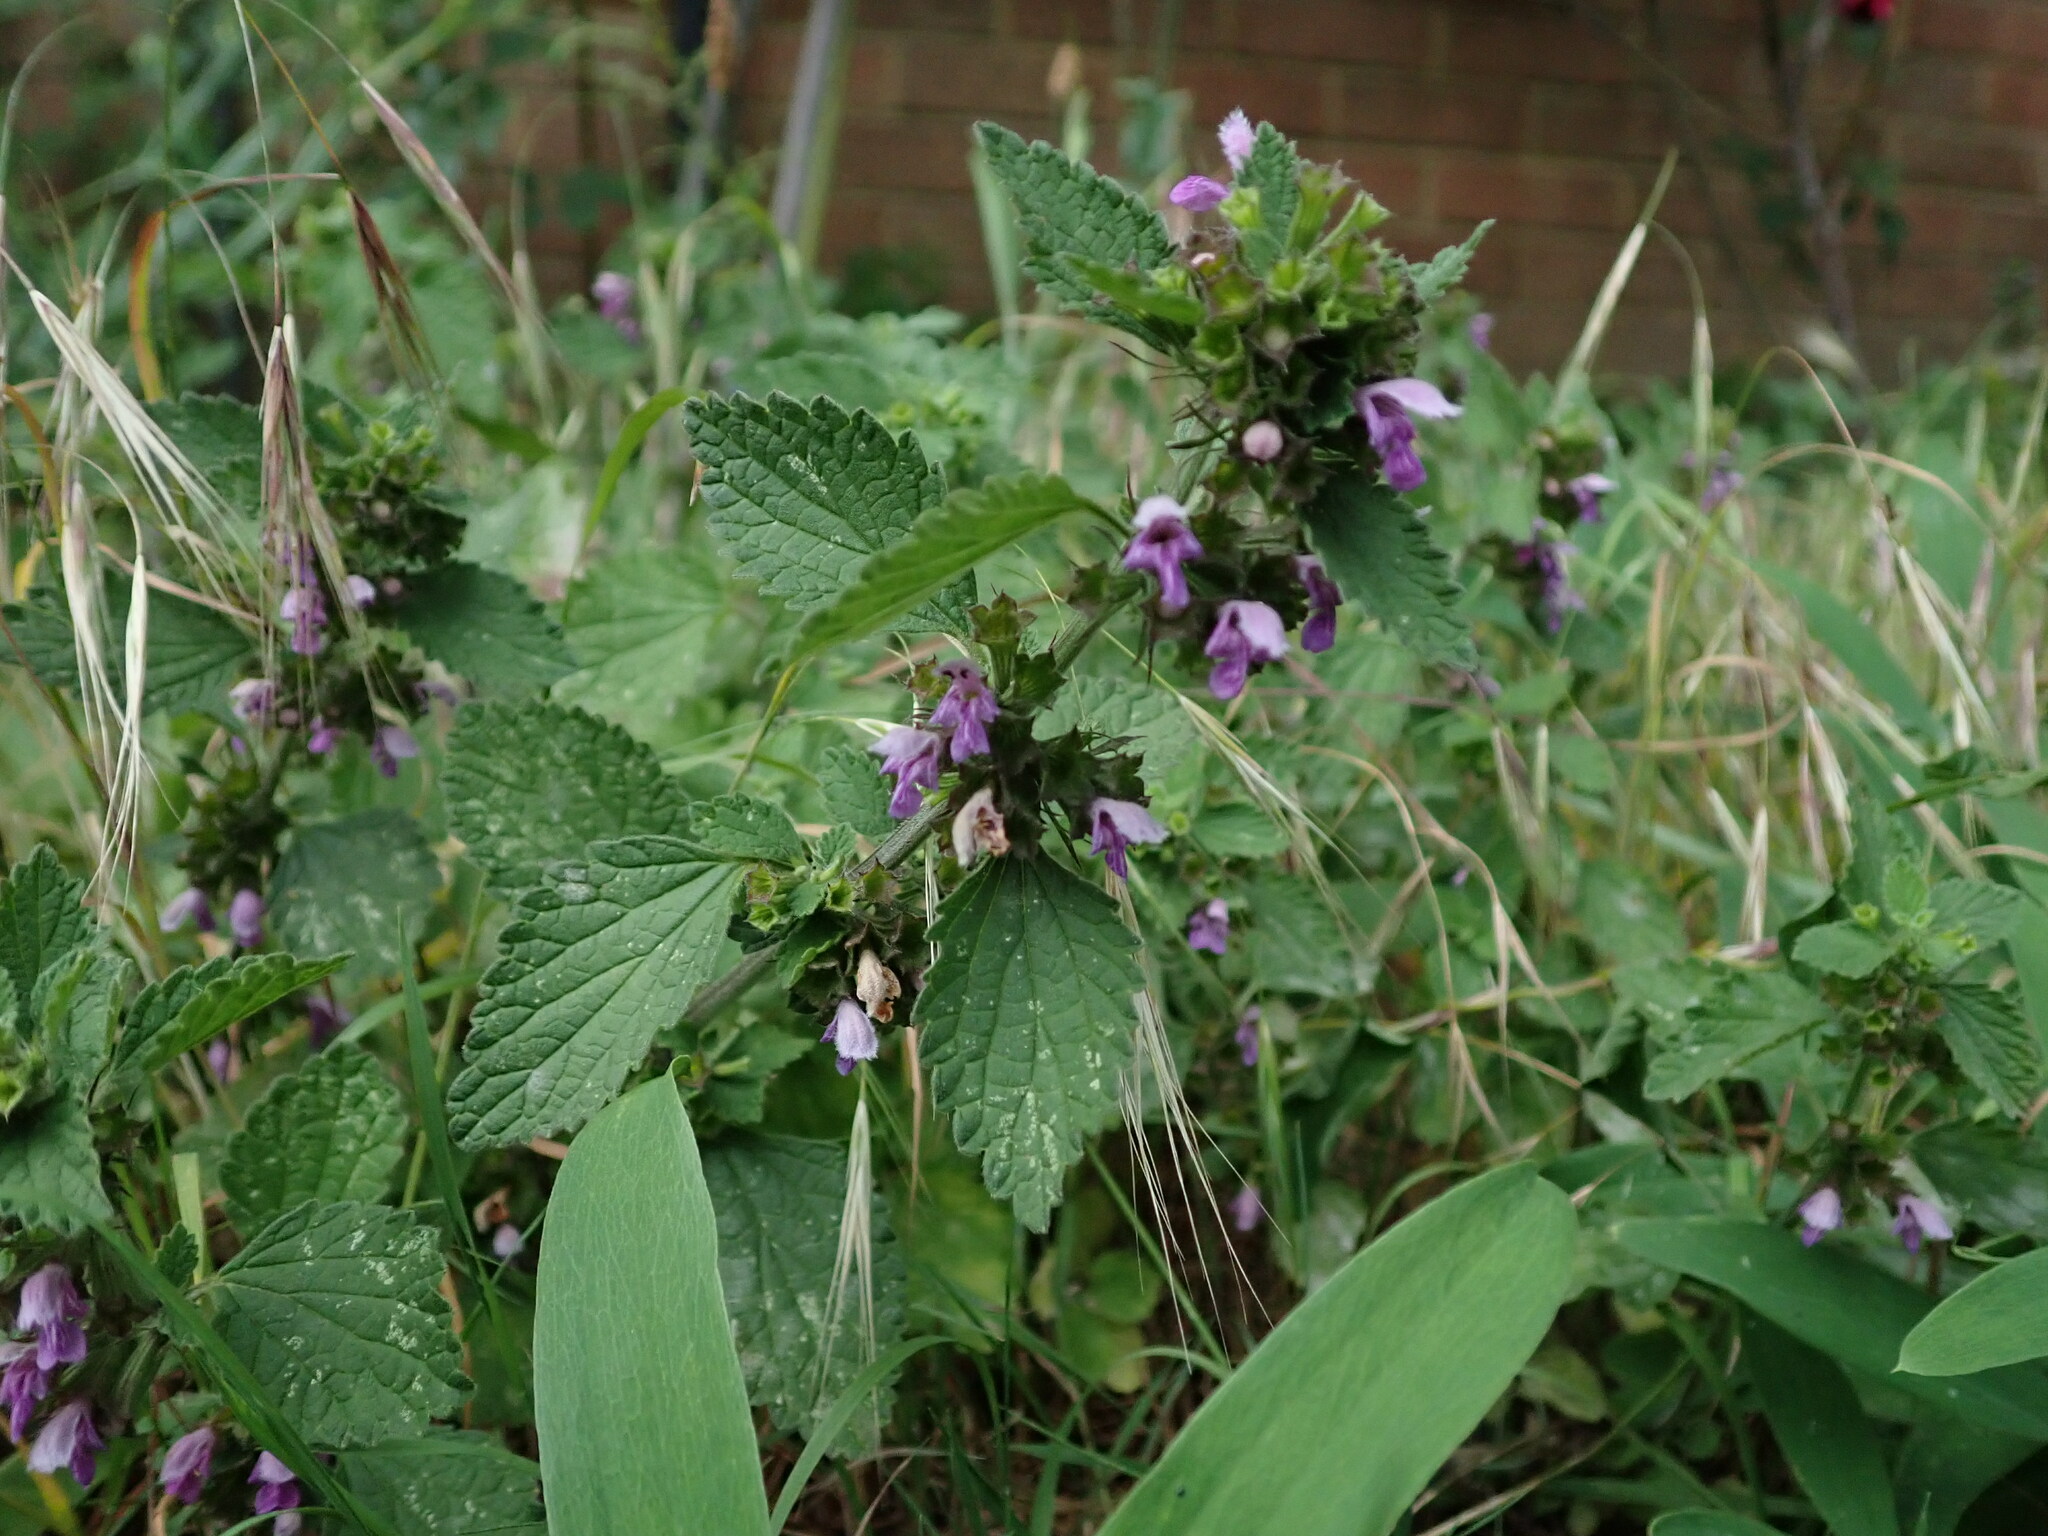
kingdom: Plantae
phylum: Tracheophyta
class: Magnoliopsida
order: Lamiales
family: Lamiaceae
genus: Ballota
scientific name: Ballota nigra
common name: Black horehound
